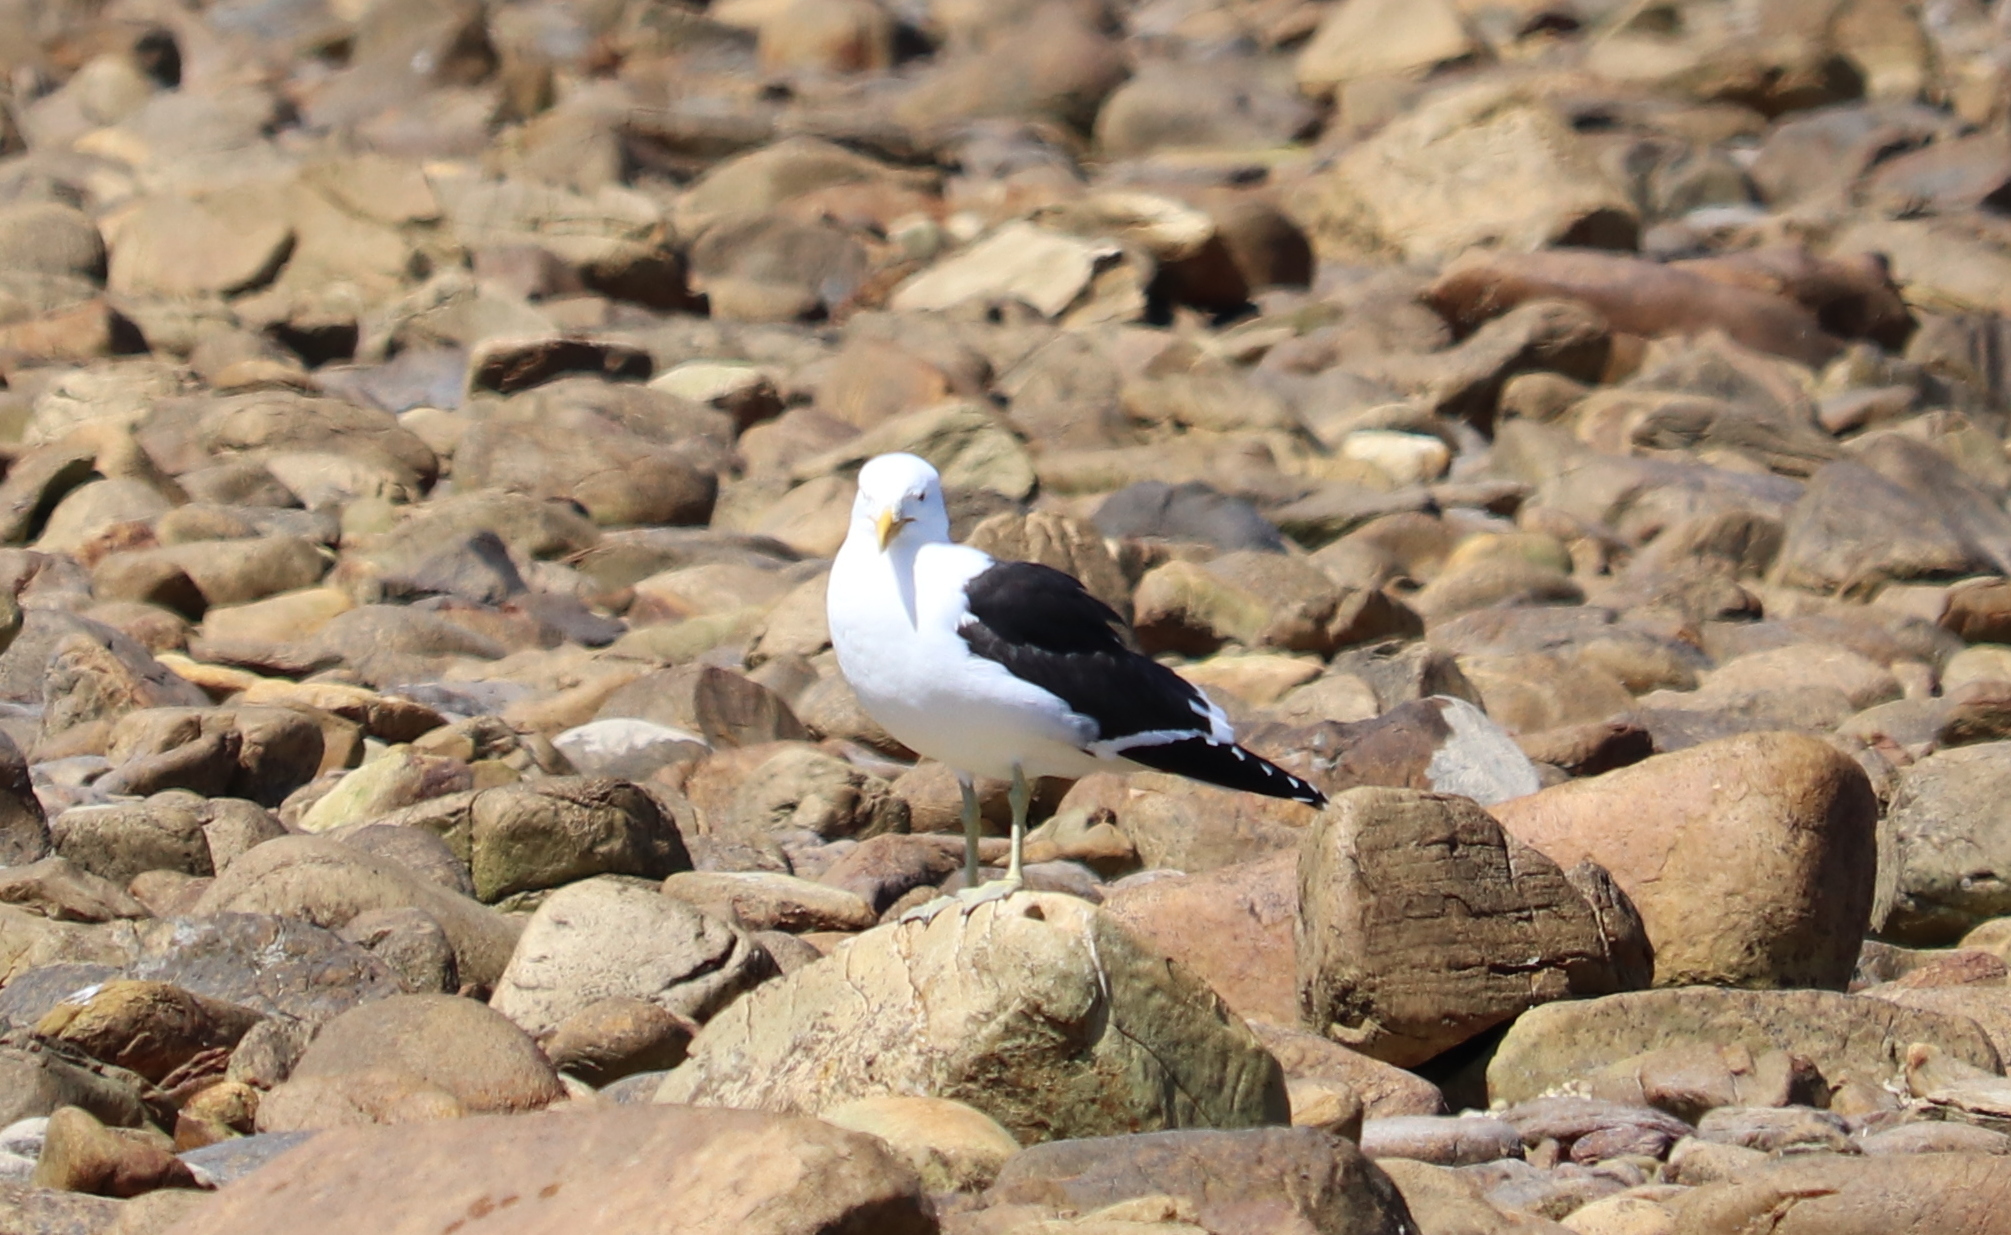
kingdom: Animalia
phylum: Chordata
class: Aves
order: Charadriiformes
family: Laridae
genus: Larus
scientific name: Larus dominicanus
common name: Kelp gull
